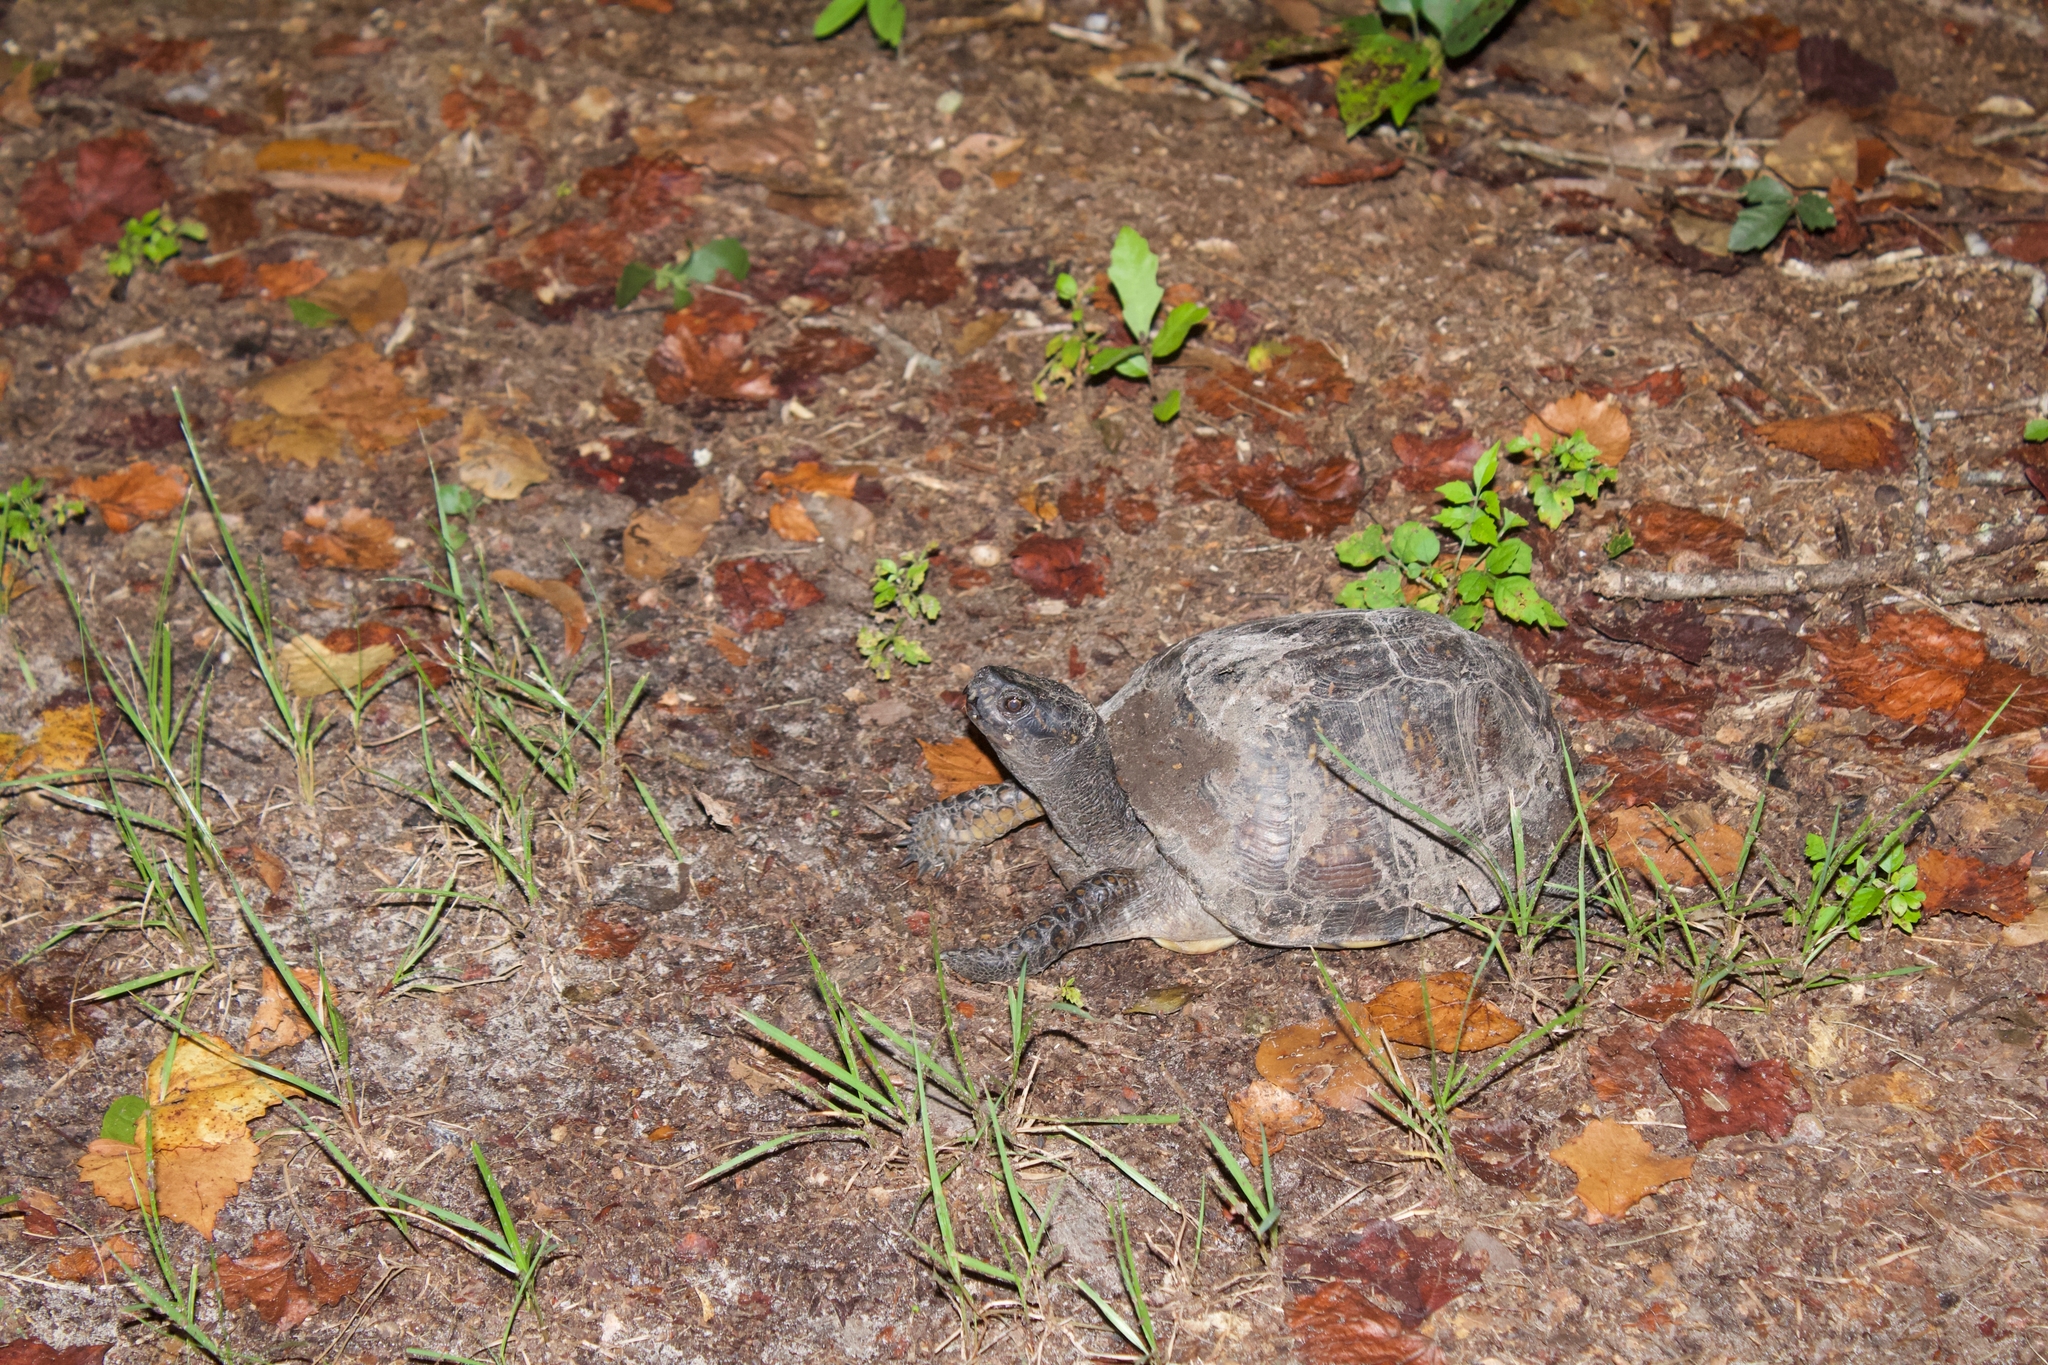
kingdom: Animalia
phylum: Chordata
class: Testudines
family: Emydidae
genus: Terrapene
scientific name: Terrapene carolina
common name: Common box turtle
